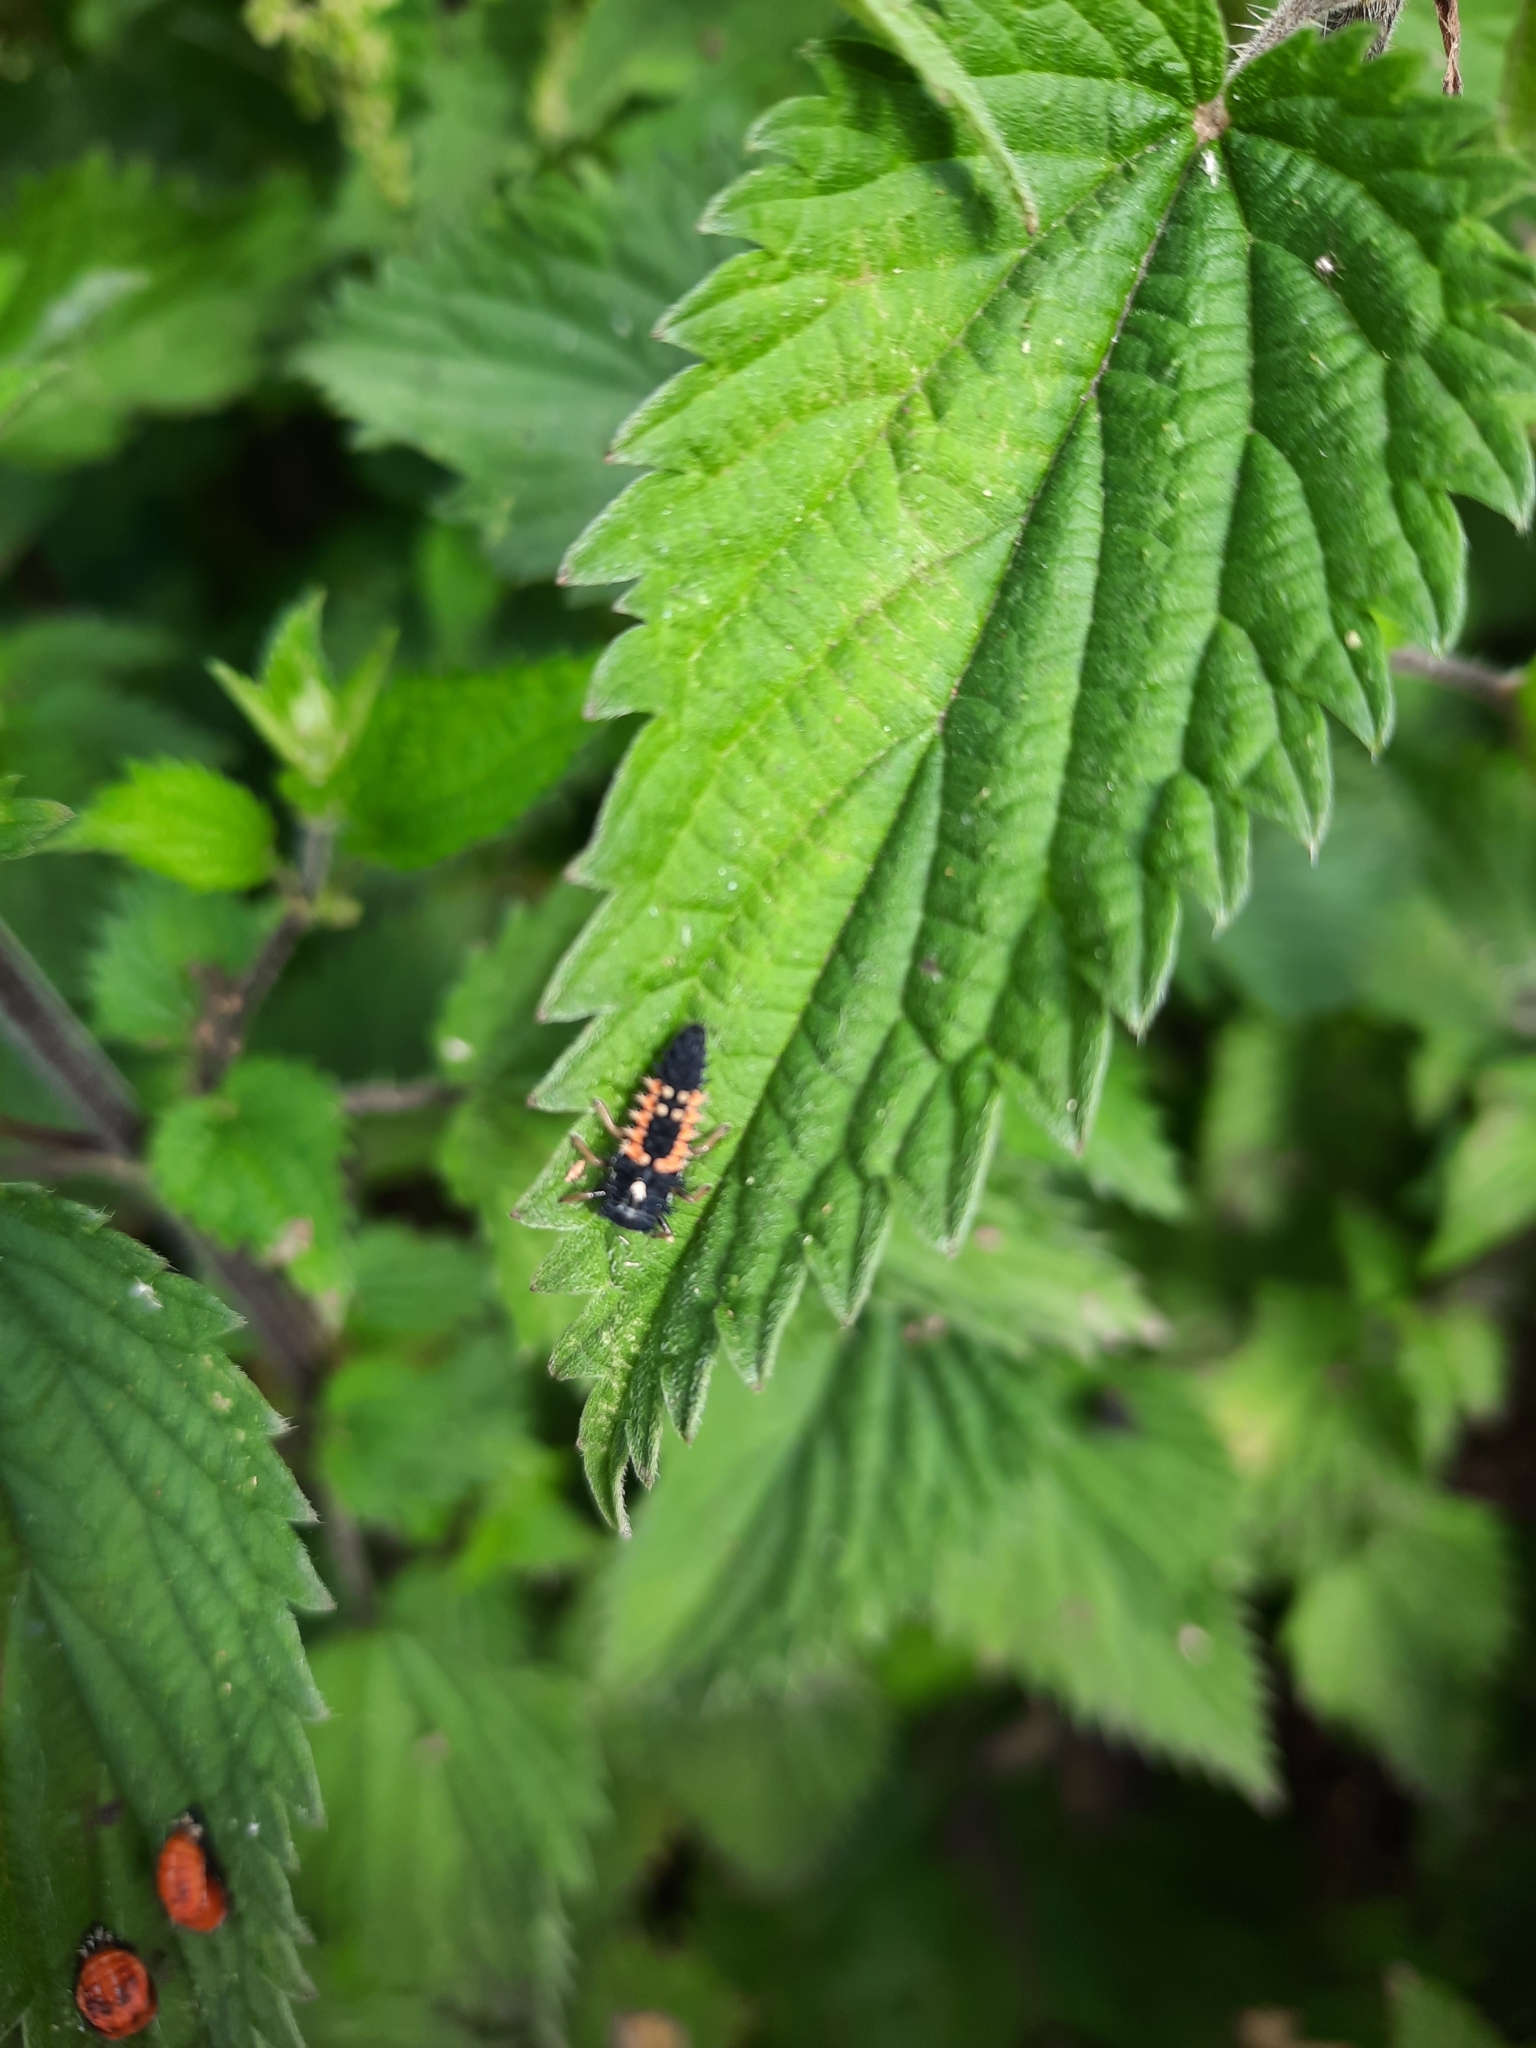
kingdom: Animalia
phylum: Arthropoda
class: Insecta
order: Coleoptera
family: Coccinellidae
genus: Harmonia
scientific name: Harmonia axyridis
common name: Harlequin ladybird
